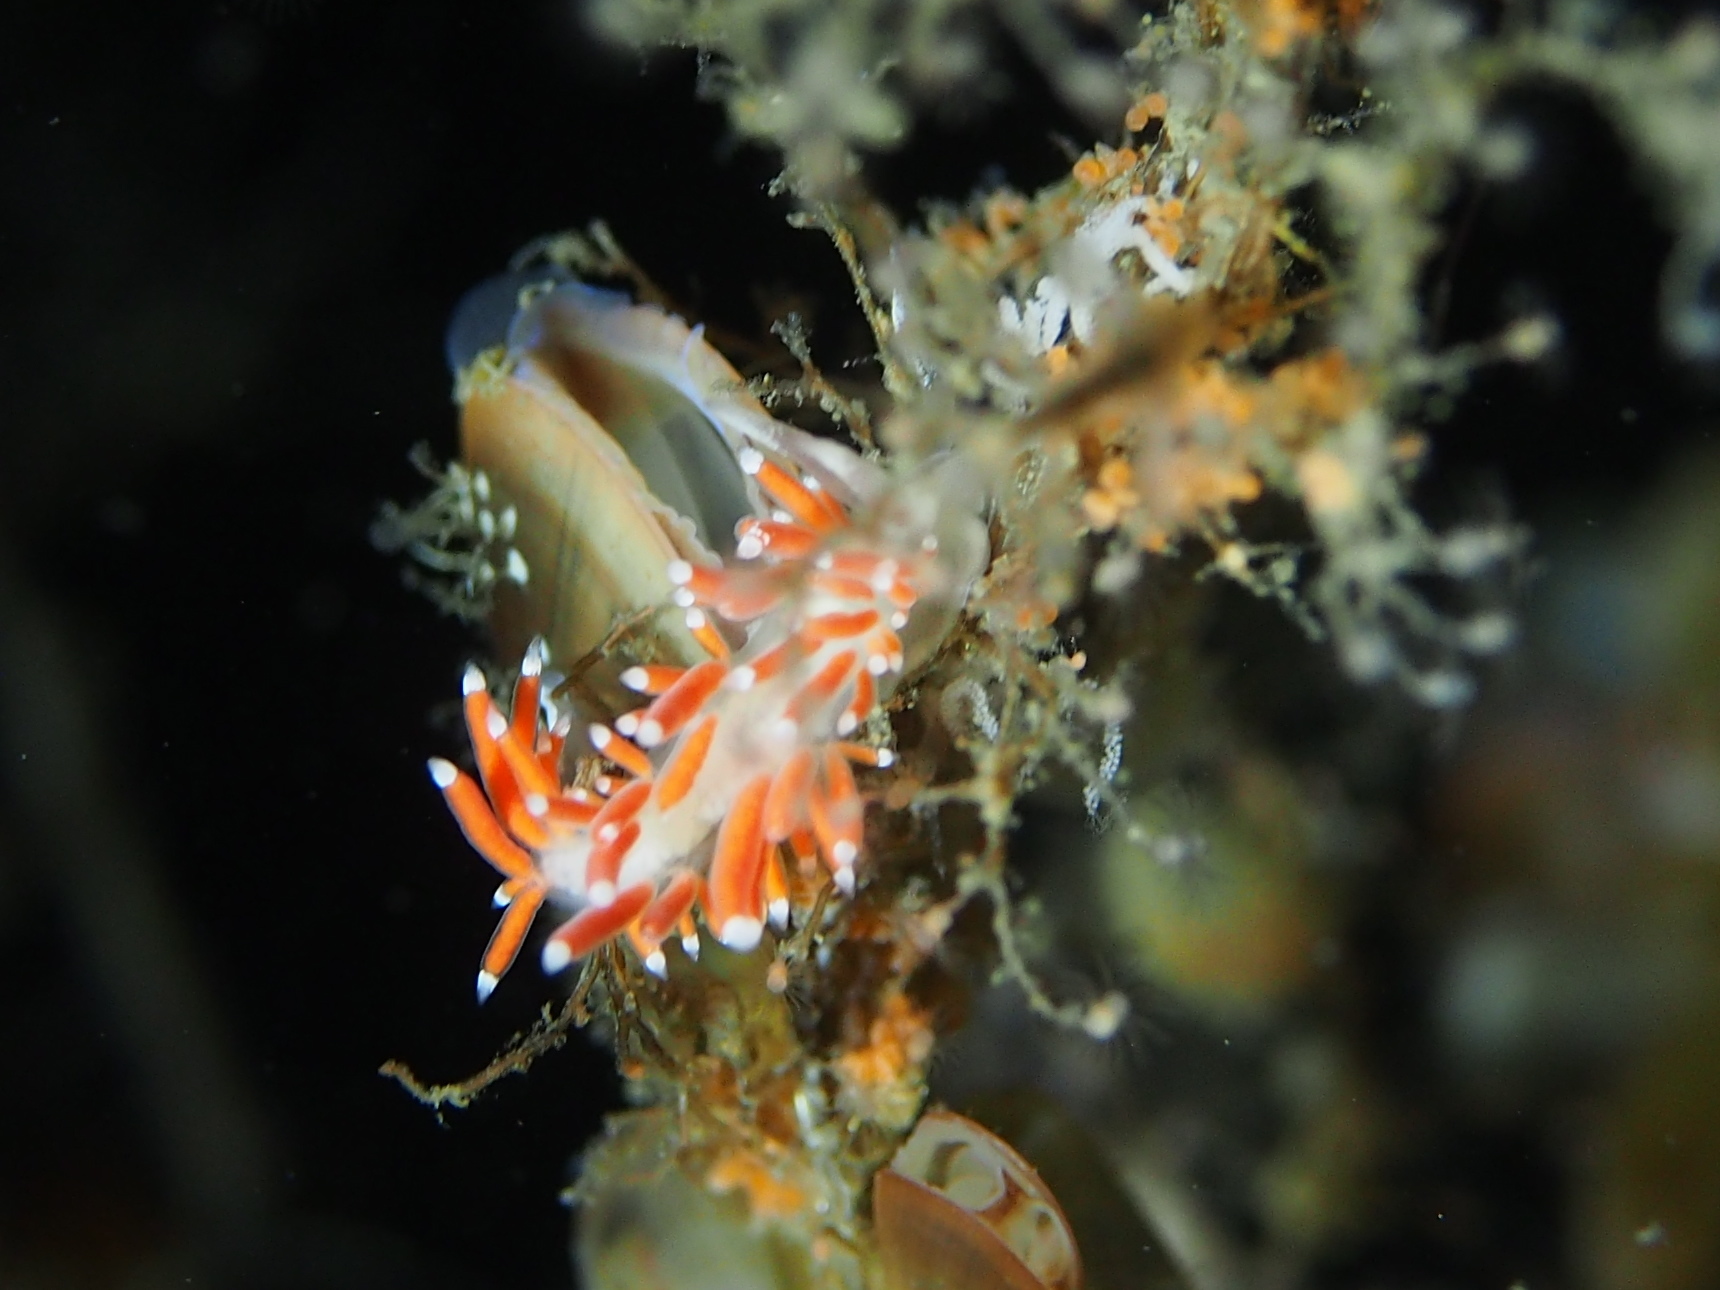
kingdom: Animalia
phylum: Mollusca
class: Gastropoda
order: Nudibranchia
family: Coryphellidae
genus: Coryphella
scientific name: Coryphella gracilis
